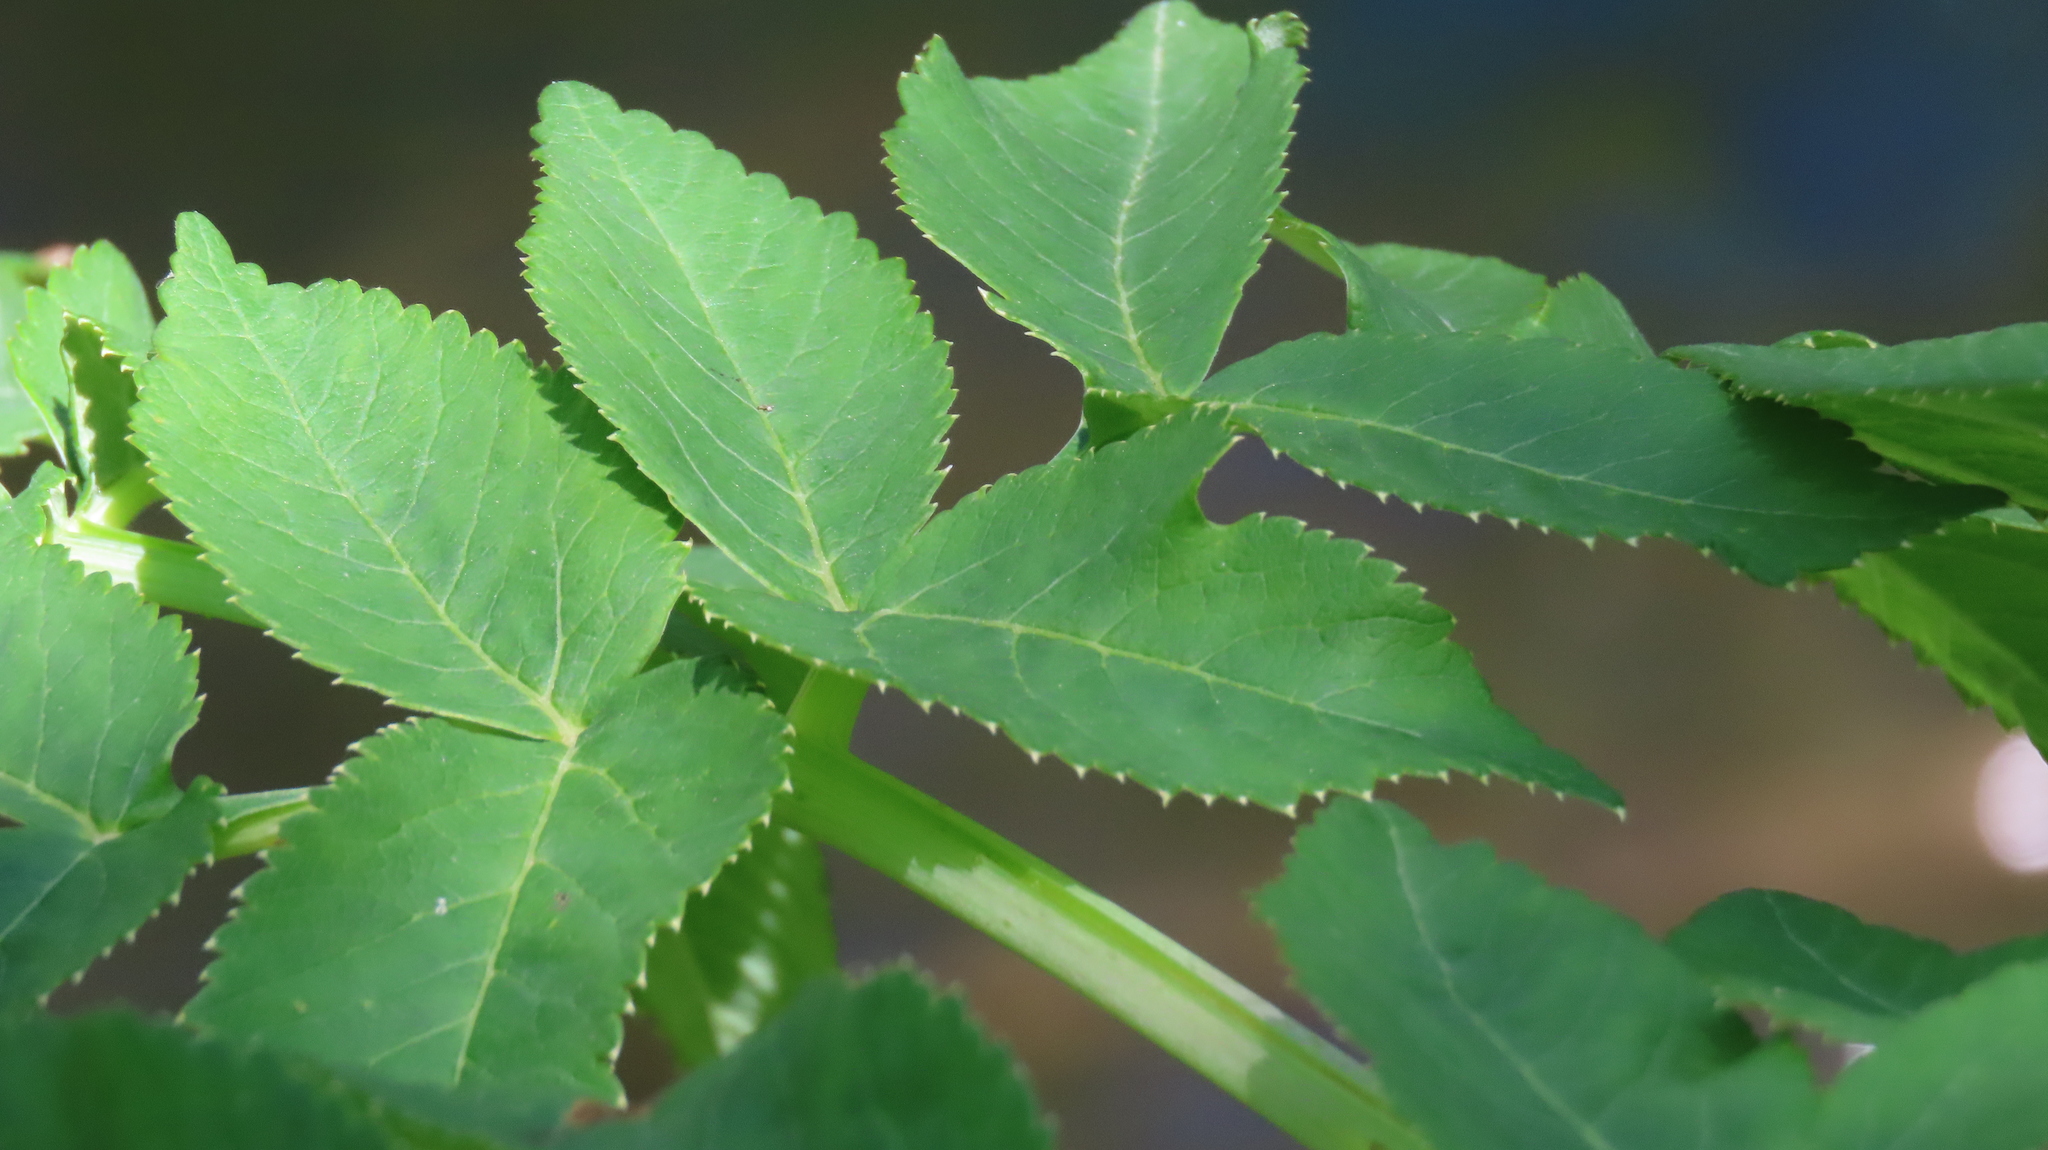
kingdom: Plantae
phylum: Tracheophyta
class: Magnoliopsida
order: Apiales
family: Apiaceae
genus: Angelica
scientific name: Angelica atropurpurea
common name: Great angelica
